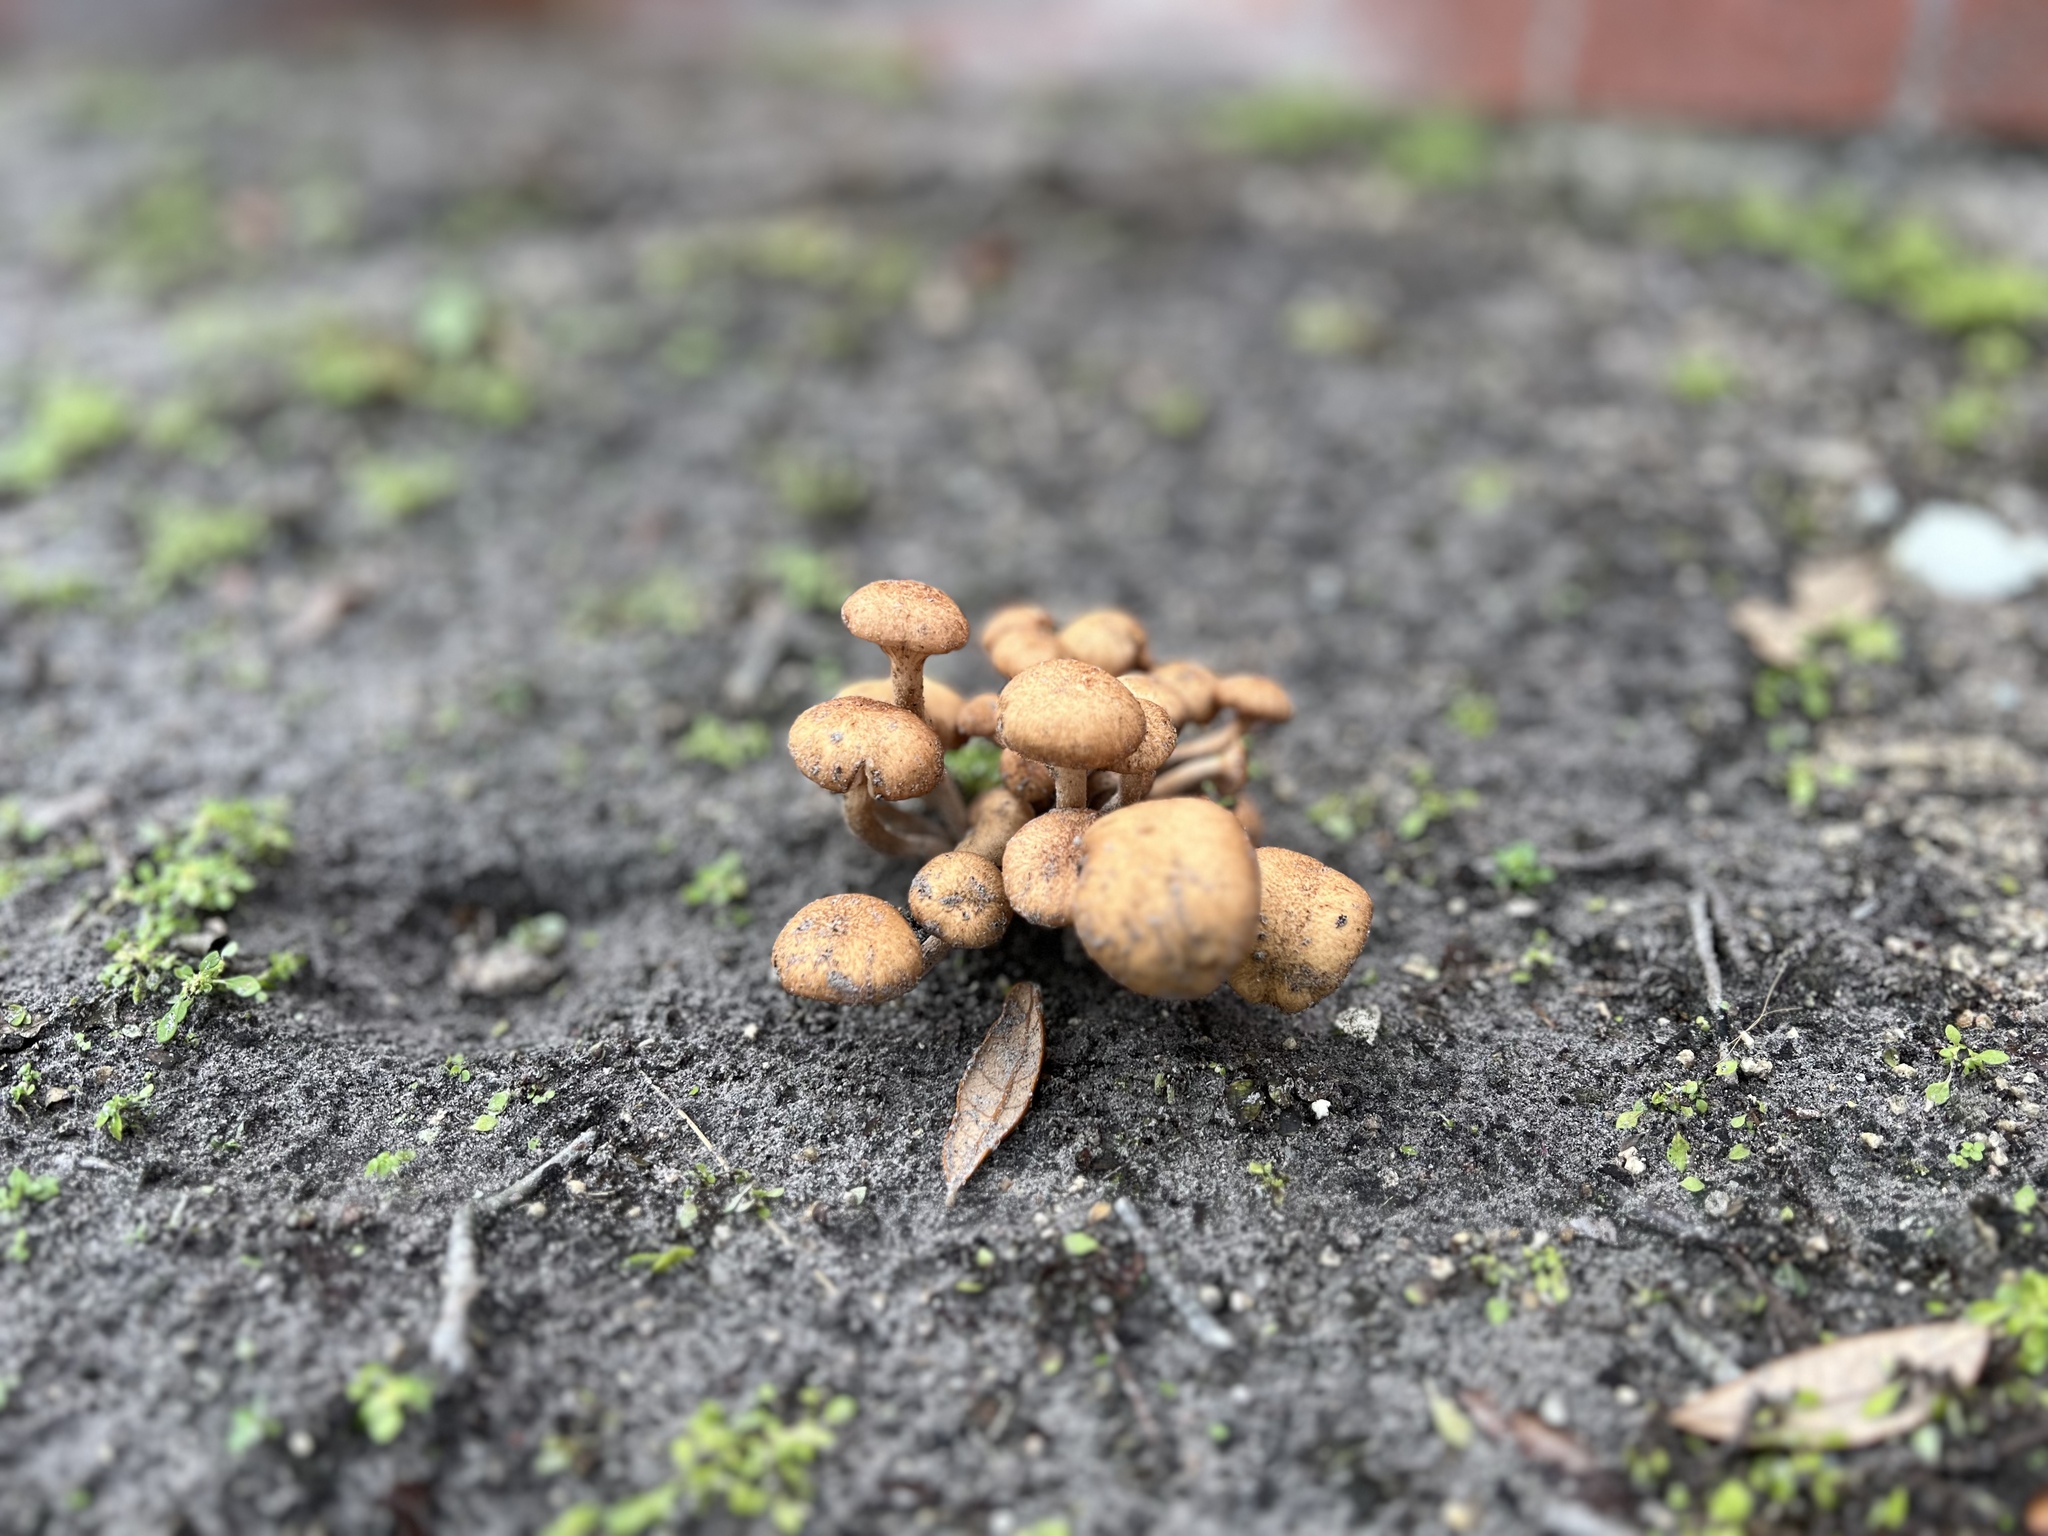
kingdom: Fungi
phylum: Basidiomycota
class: Agaricomycetes
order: Agaricales
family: Physalacriaceae
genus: Desarmillaria
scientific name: Desarmillaria caespitosa
